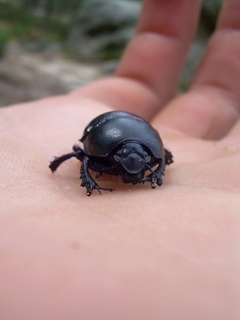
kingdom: Animalia
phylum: Arthropoda
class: Insecta
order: Coleoptera
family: Geotrupidae
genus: Trypocopris
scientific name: Trypocopris vernalis
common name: Spring dumbledor
